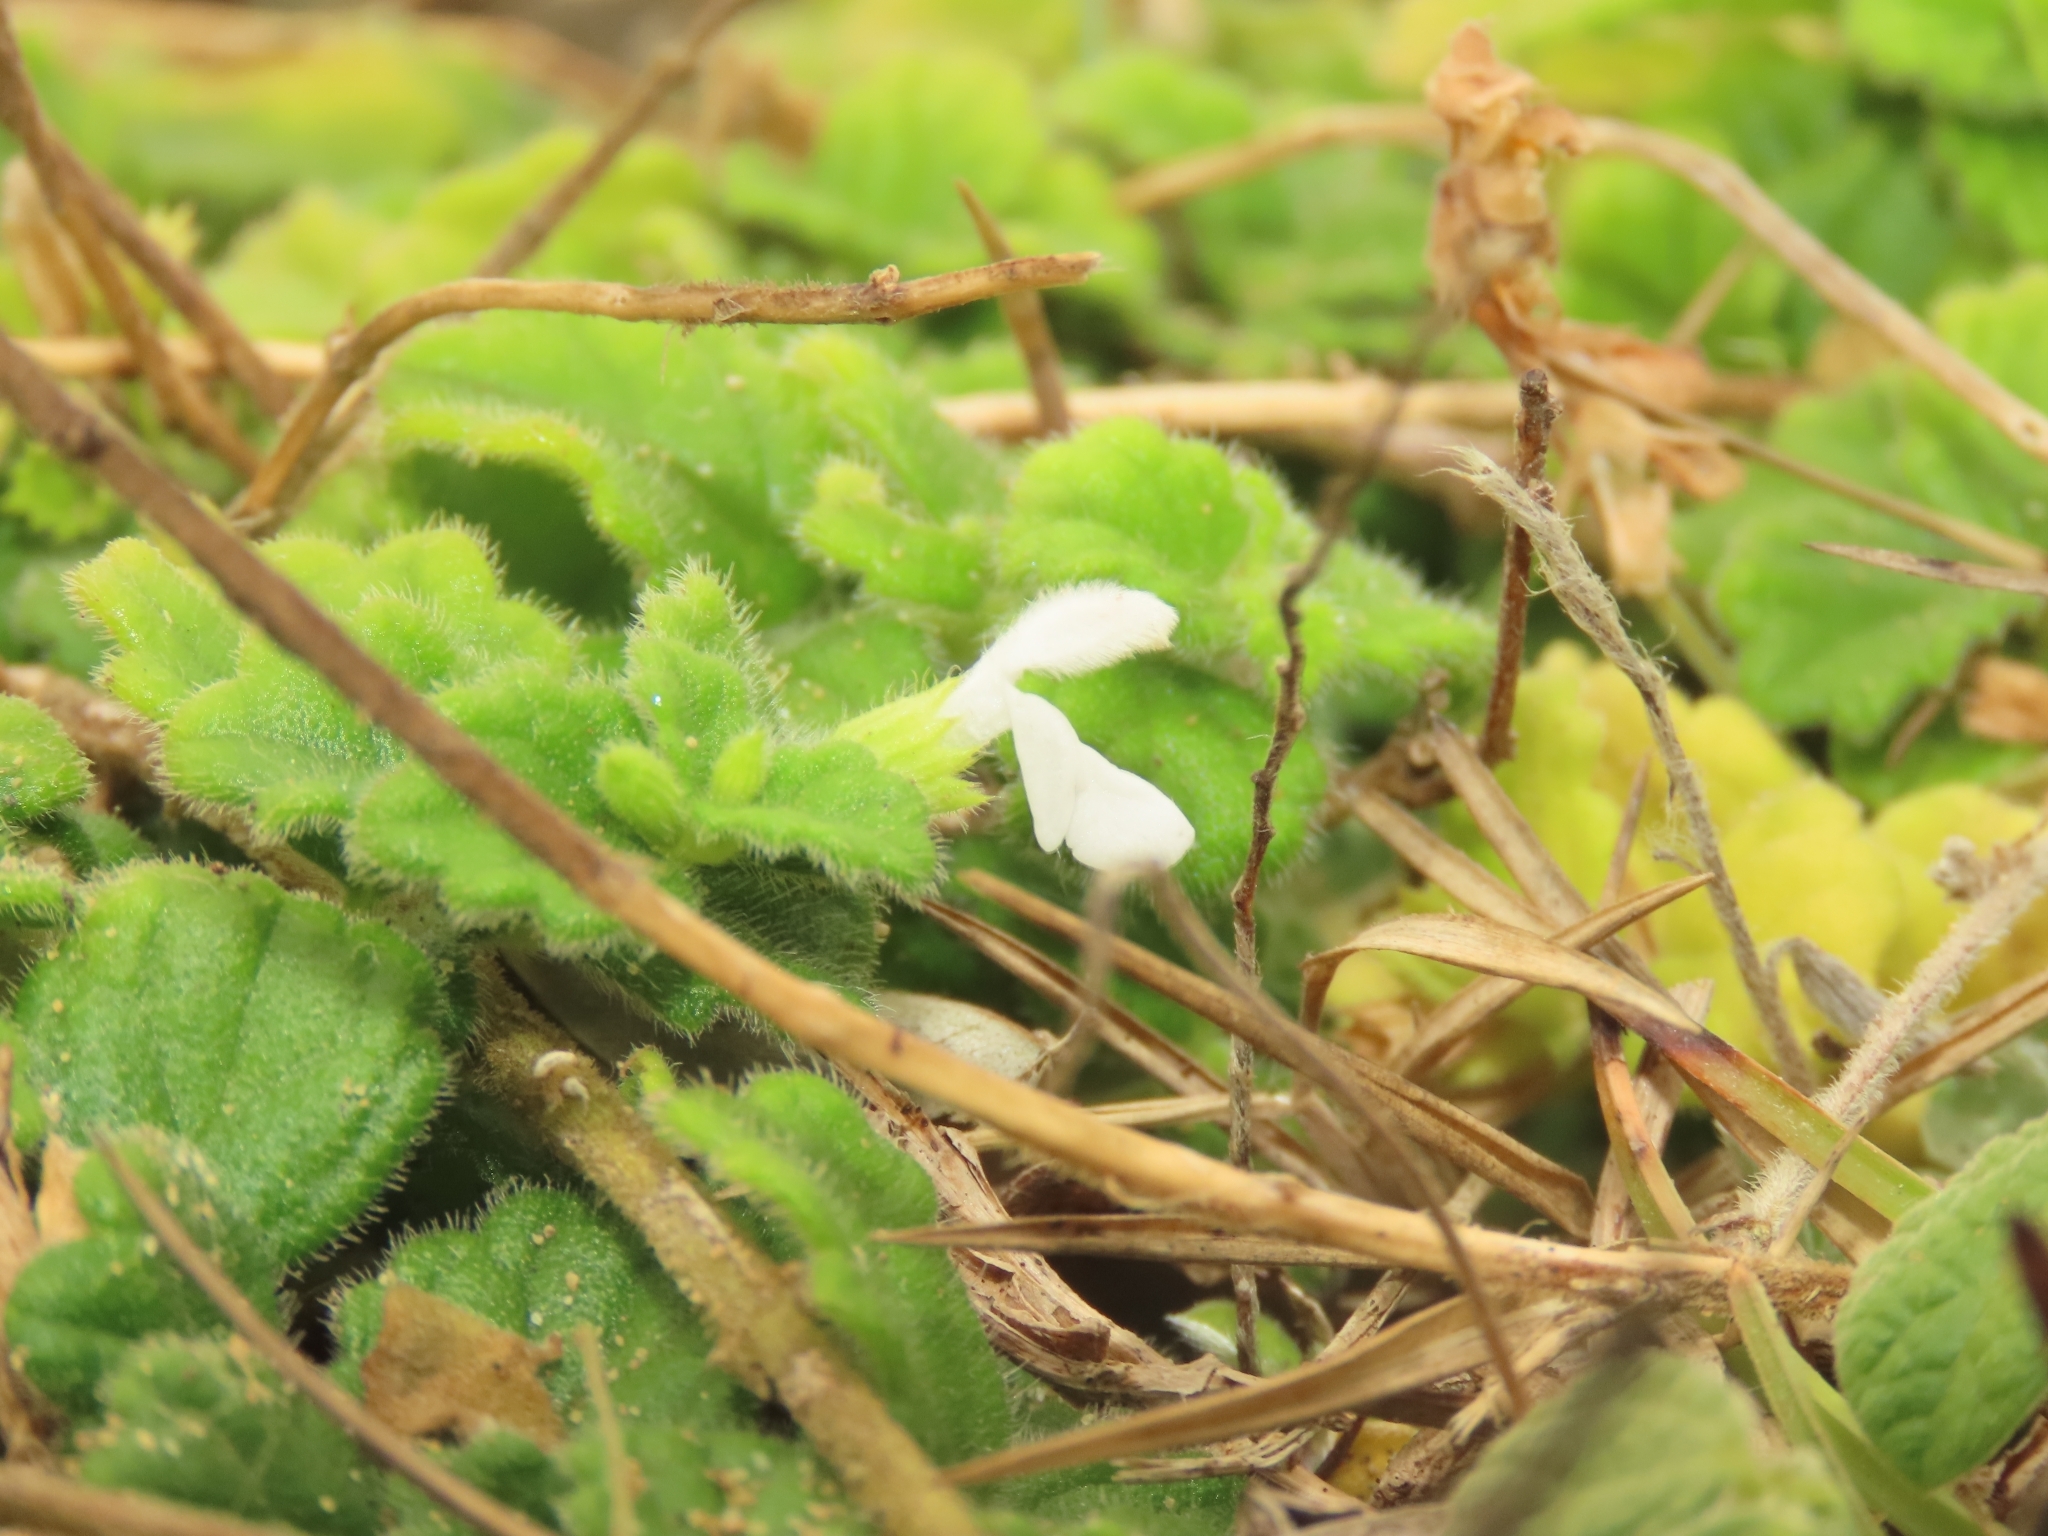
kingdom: Plantae
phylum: Tracheophyta
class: Magnoliopsida
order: Lamiales
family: Lamiaceae
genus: Leucas
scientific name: Leucas chinensis
